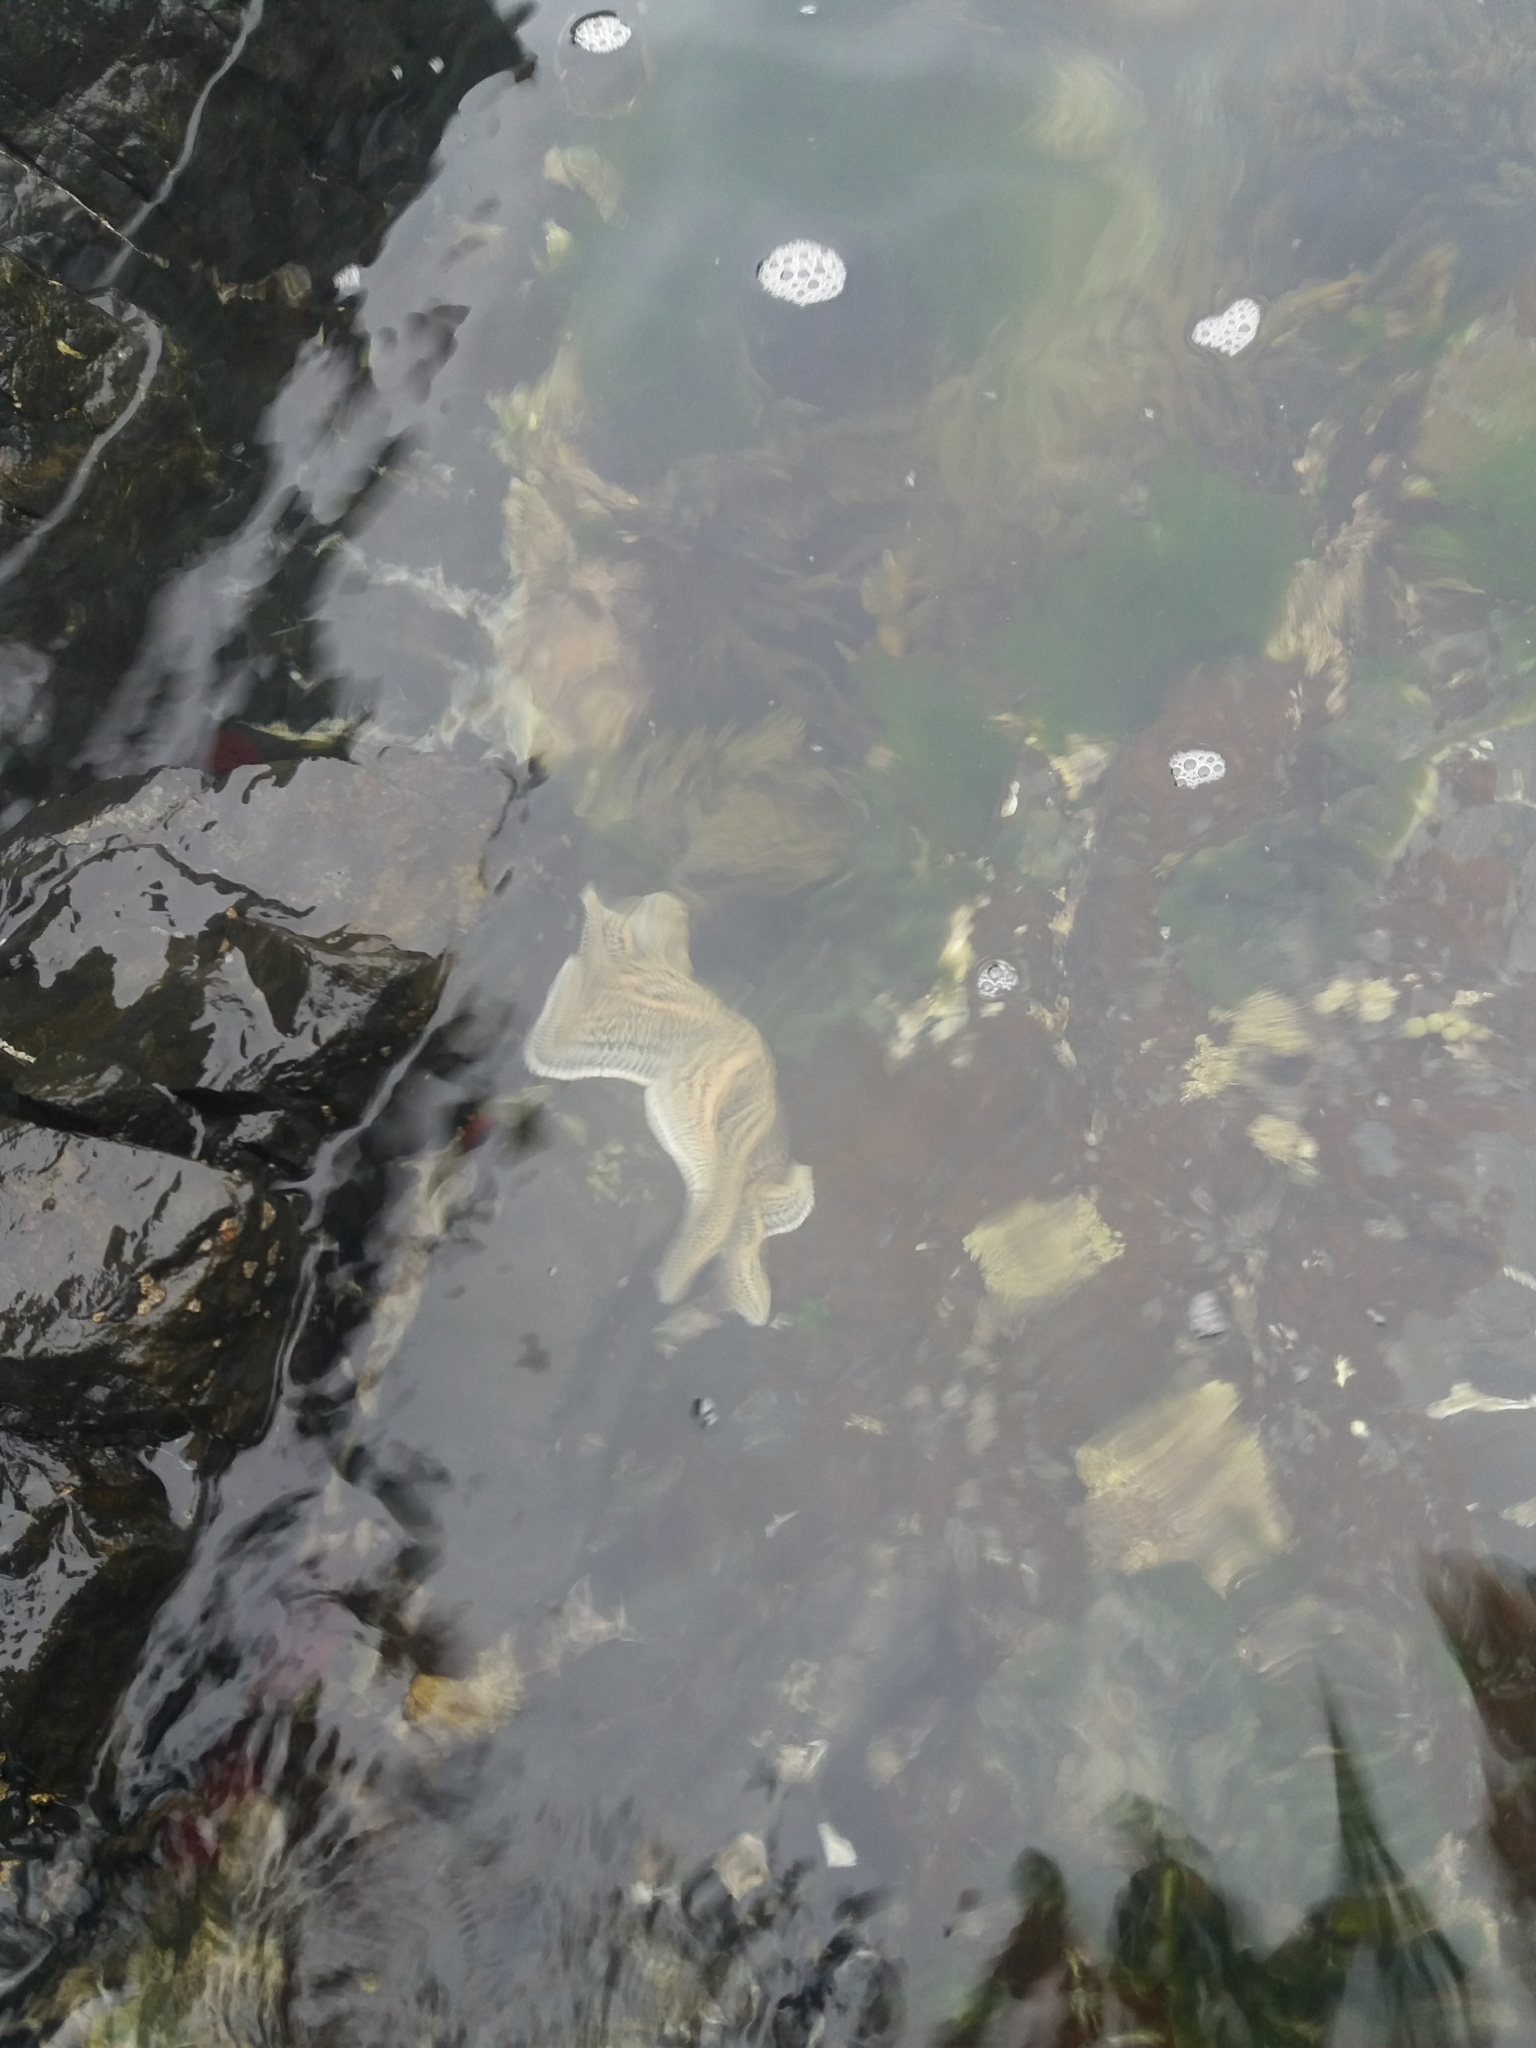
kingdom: Animalia
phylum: Echinodermata
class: Asteroidea
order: Forcipulatida
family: Stichasteridae
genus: Stichaster
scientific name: Stichaster australis
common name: Reef starfish
